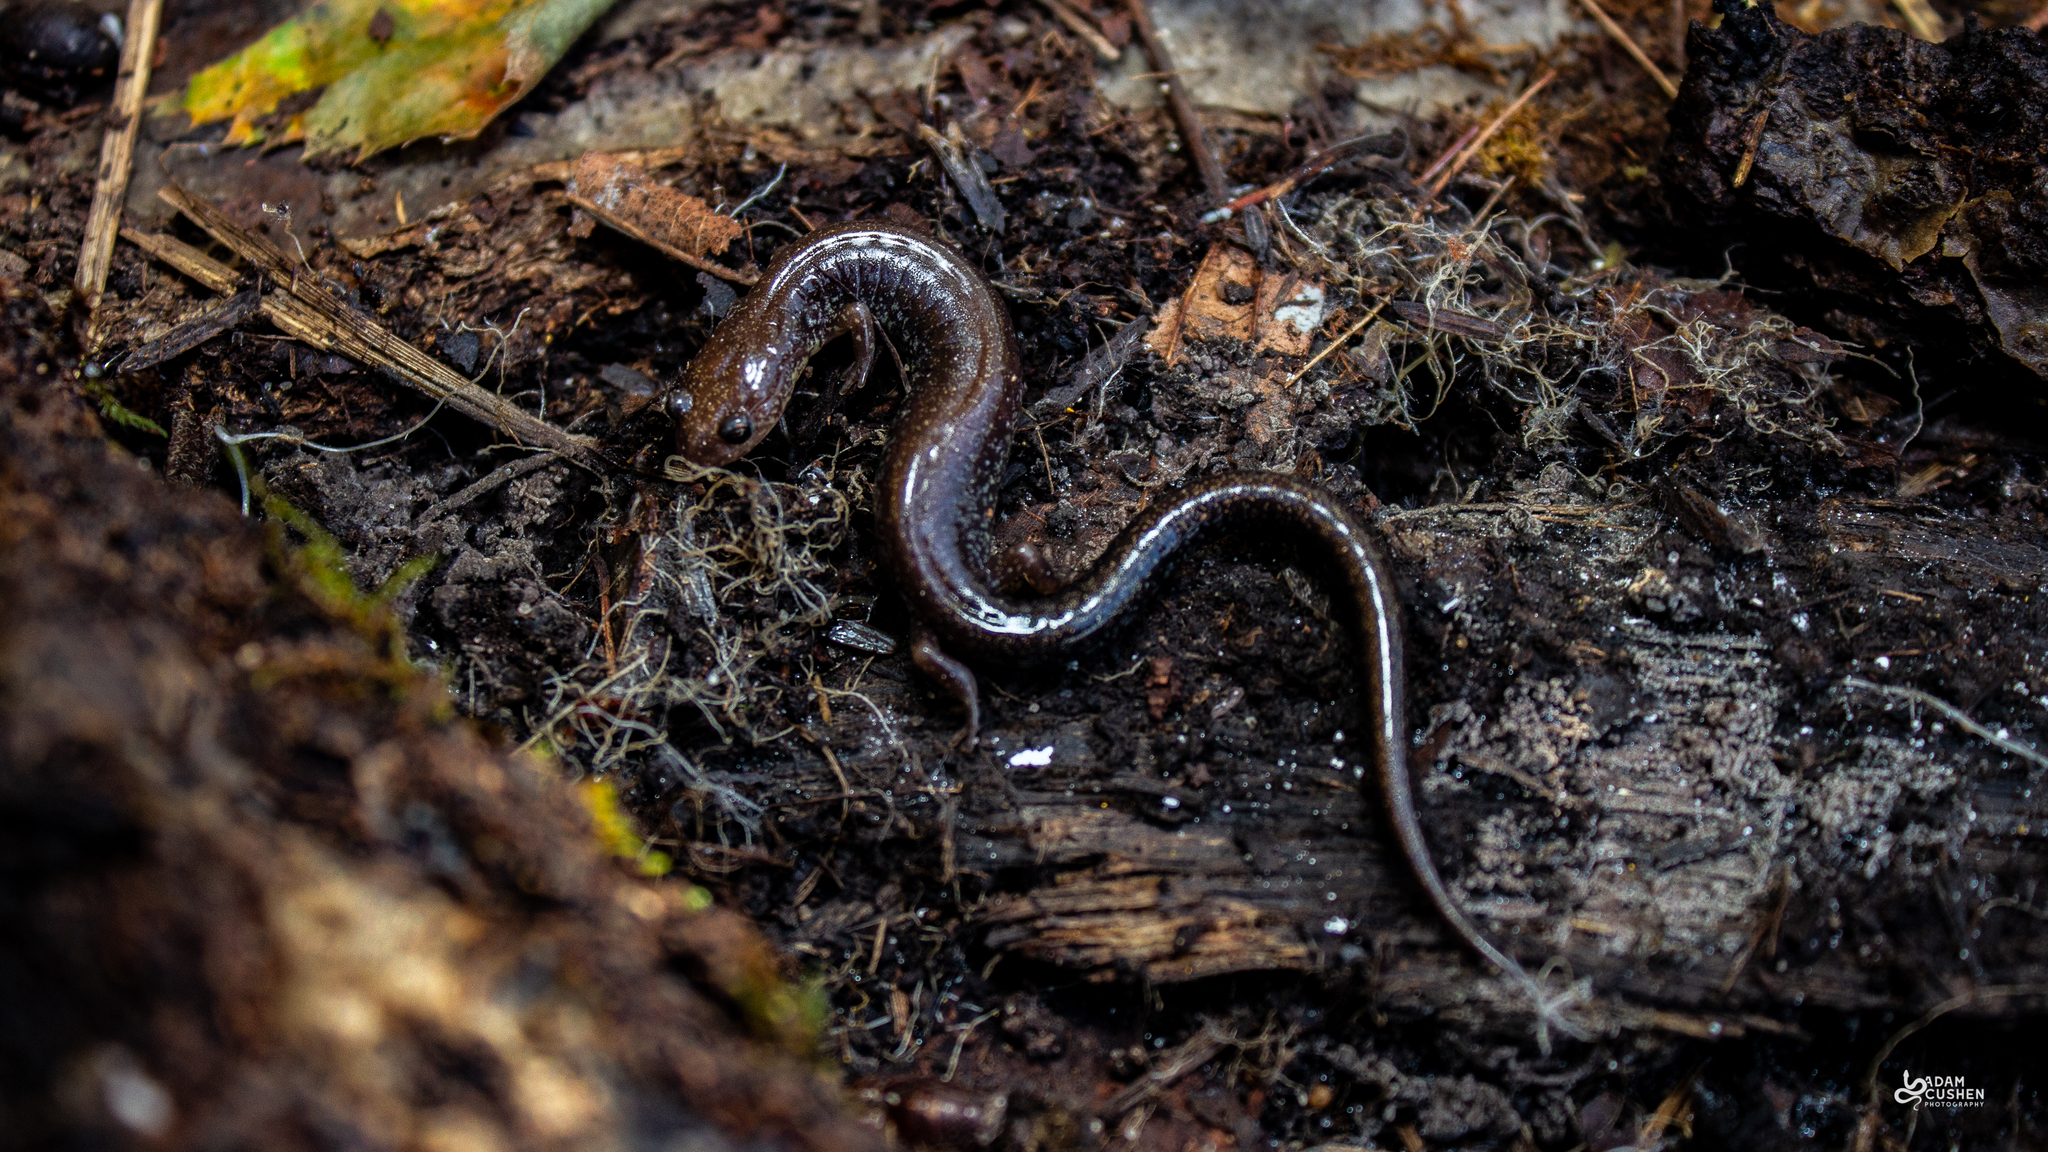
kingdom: Animalia
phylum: Chordata
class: Amphibia
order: Caudata
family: Plethodontidae
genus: Plethodon
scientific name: Plethodon cinereus
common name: Redback salamander
